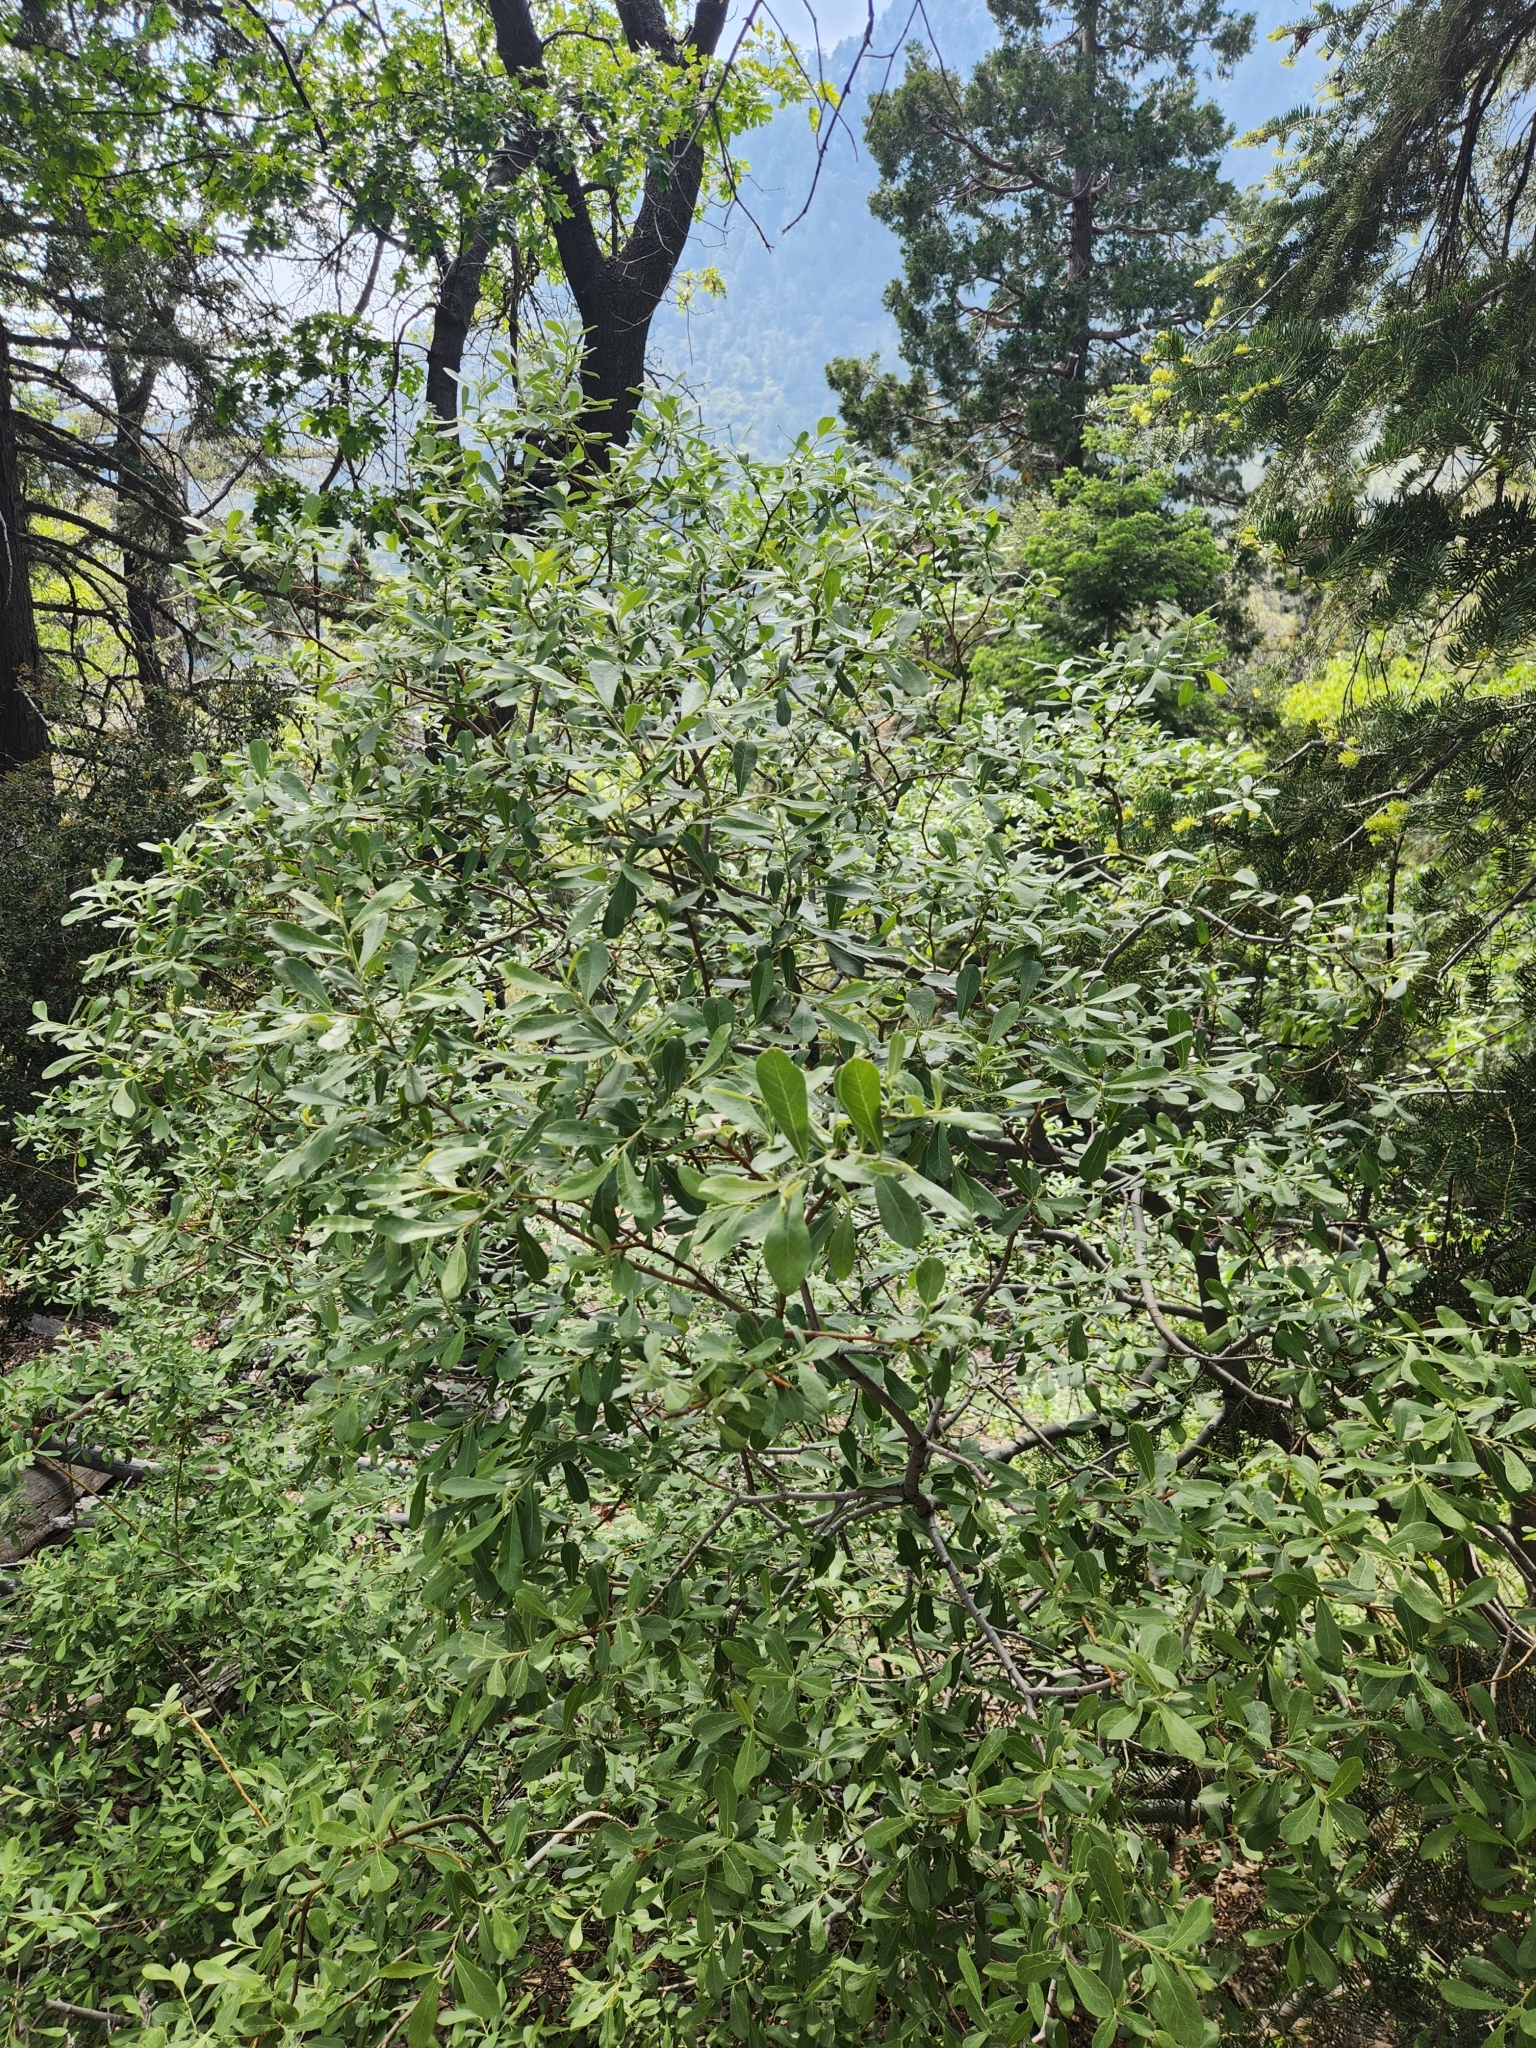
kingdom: Plantae
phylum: Tracheophyta
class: Magnoliopsida
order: Malpighiales
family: Salicaceae
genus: Salix
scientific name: Salix scouleriana
